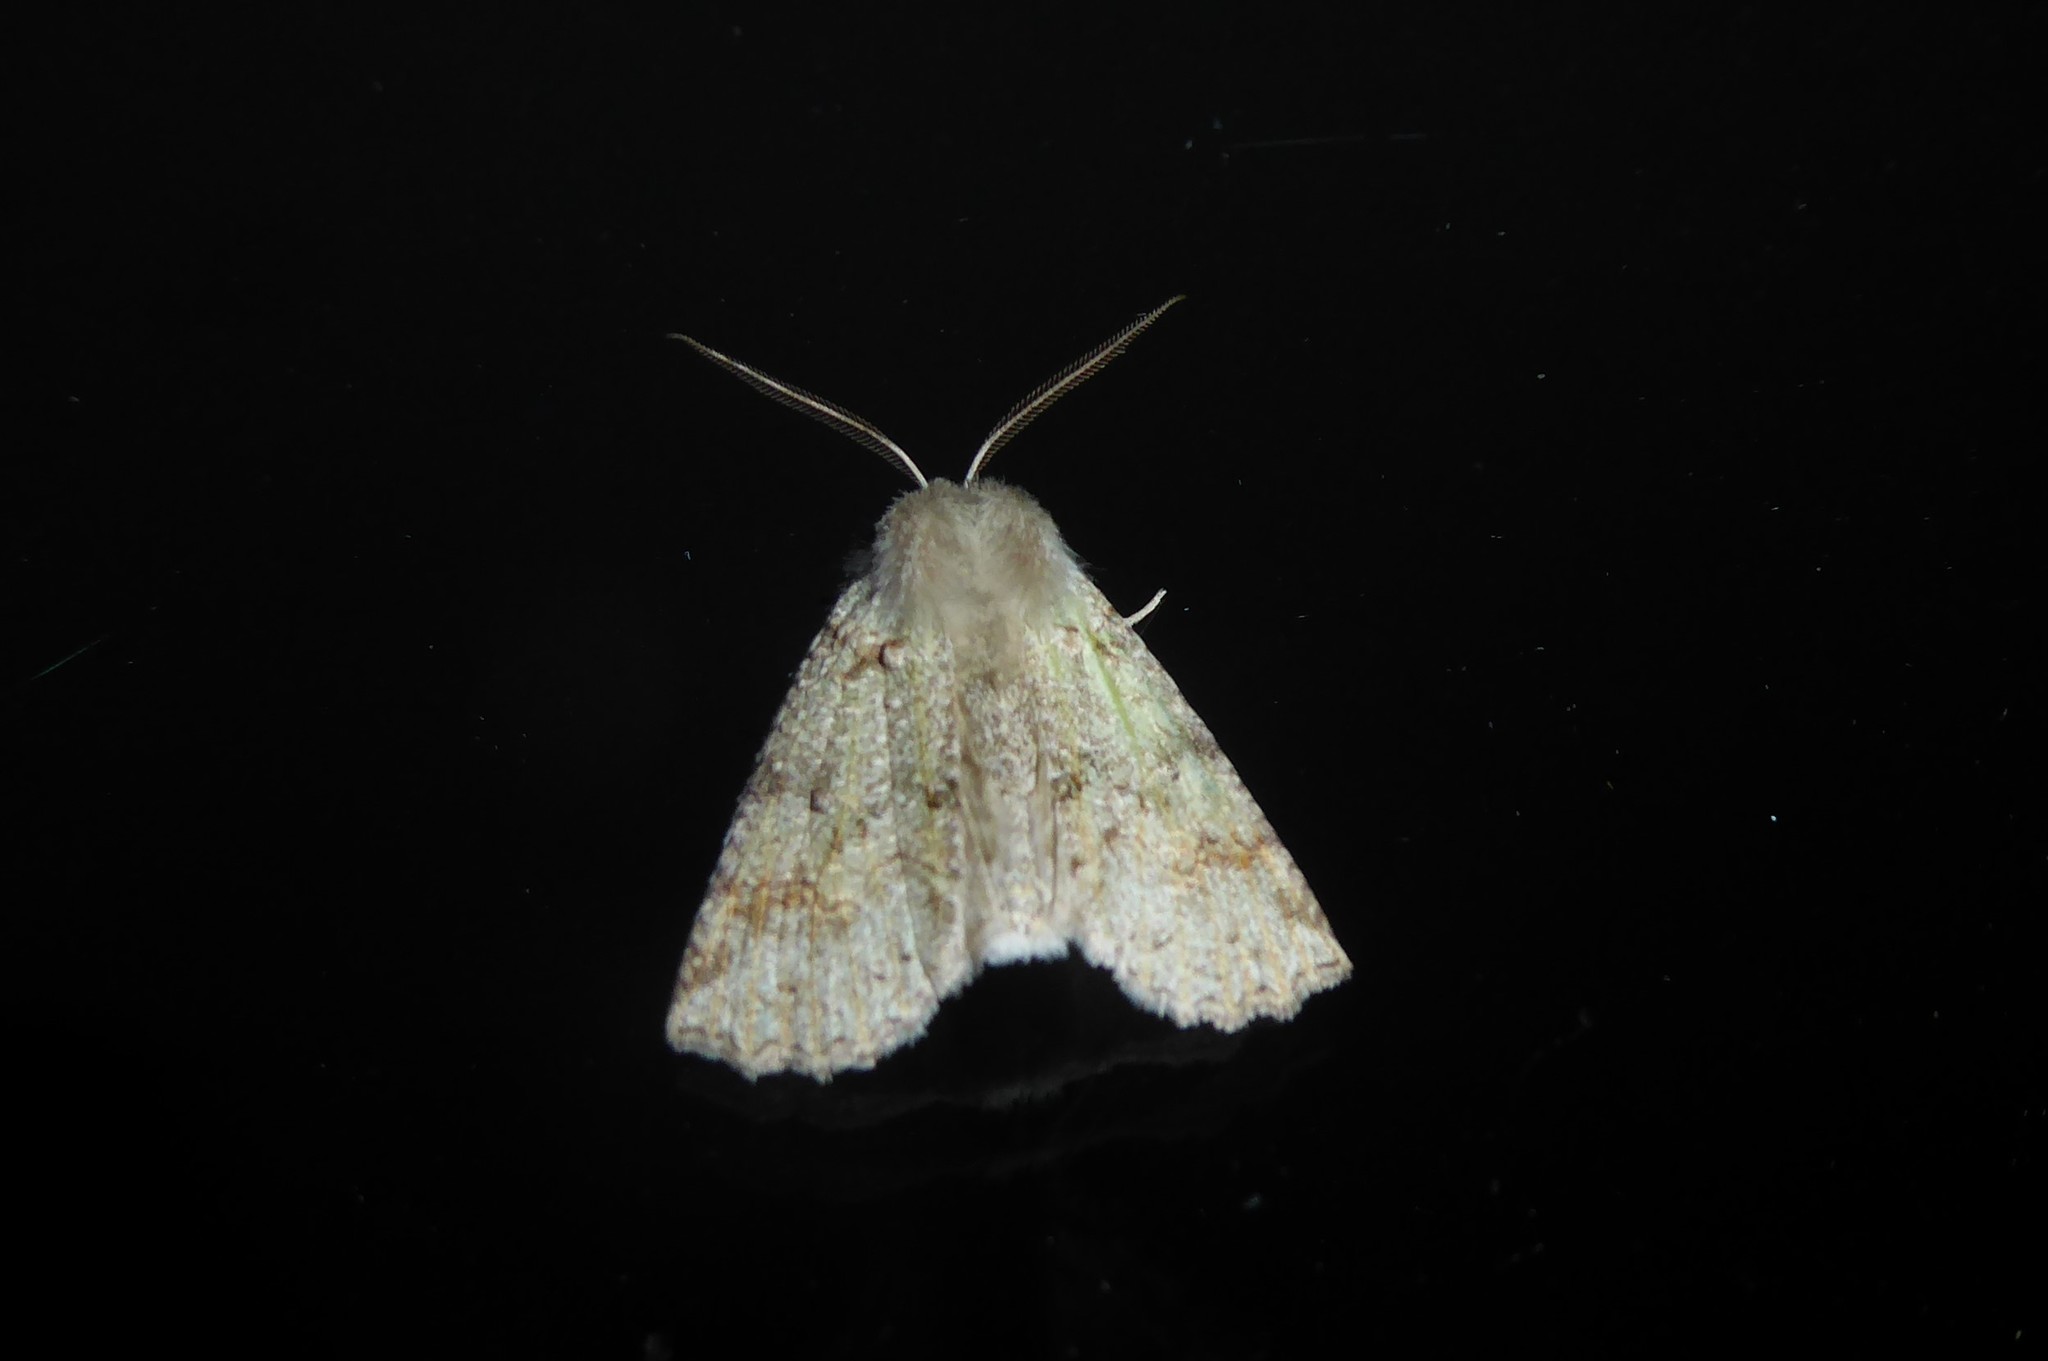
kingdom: Animalia
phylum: Arthropoda
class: Insecta
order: Lepidoptera
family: Geometridae
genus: Declana
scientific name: Declana floccosa
